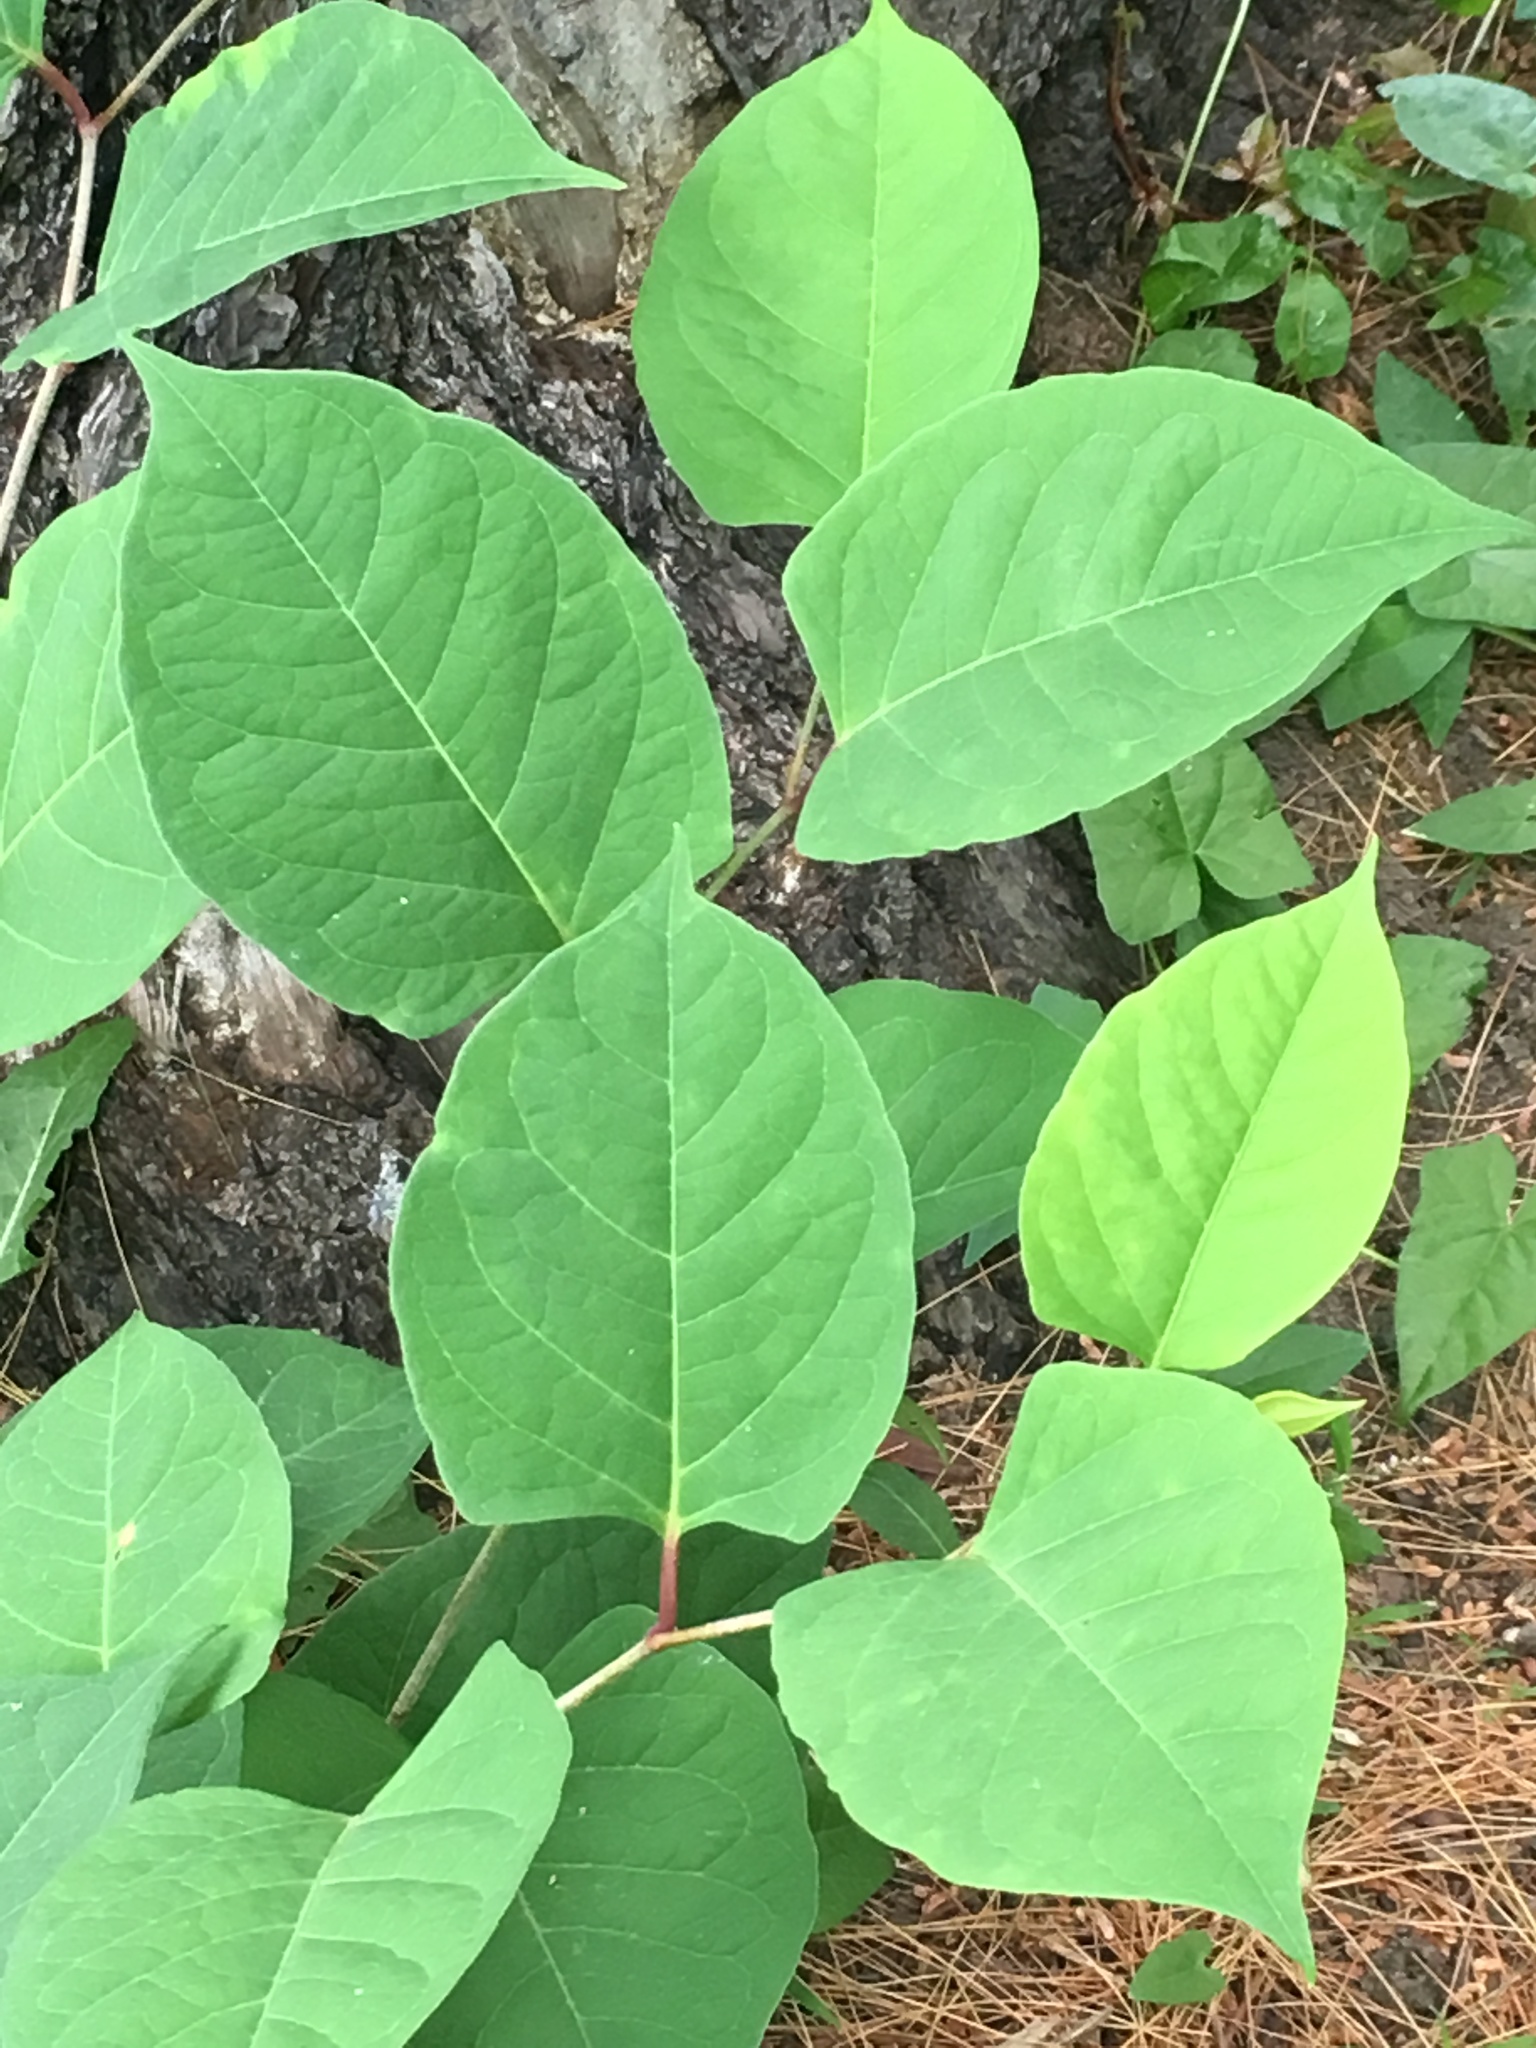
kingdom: Plantae
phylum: Tracheophyta
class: Magnoliopsida
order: Caryophyllales
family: Polygonaceae
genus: Reynoutria
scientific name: Reynoutria japonica
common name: Japanese knotweed
